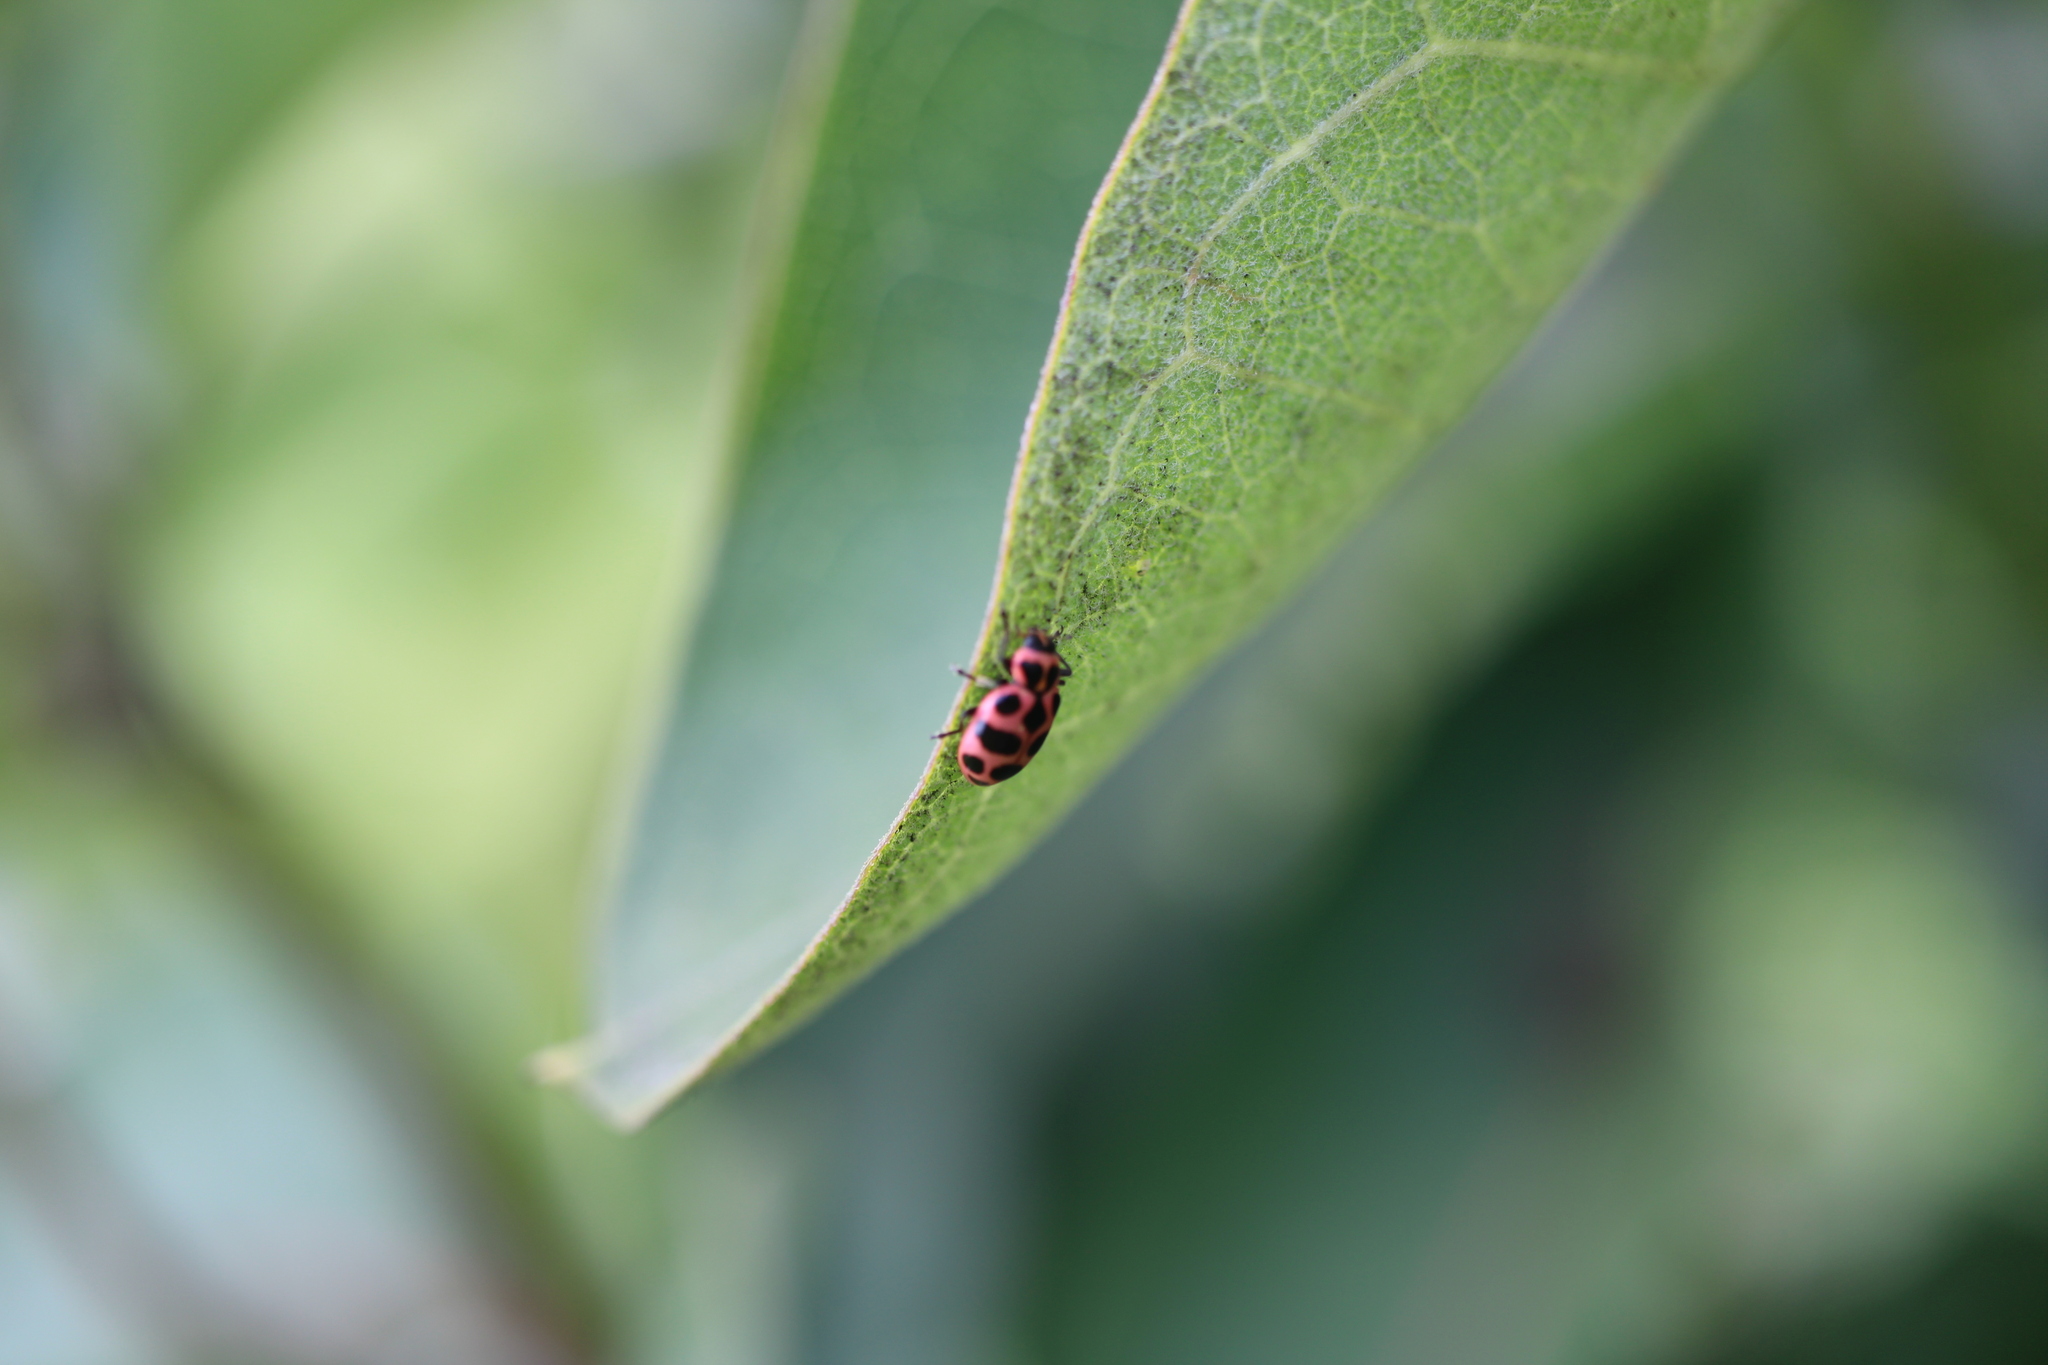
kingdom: Animalia
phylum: Arthropoda
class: Insecta
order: Coleoptera
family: Coccinellidae
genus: Coleomegilla
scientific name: Coleomegilla maculata
